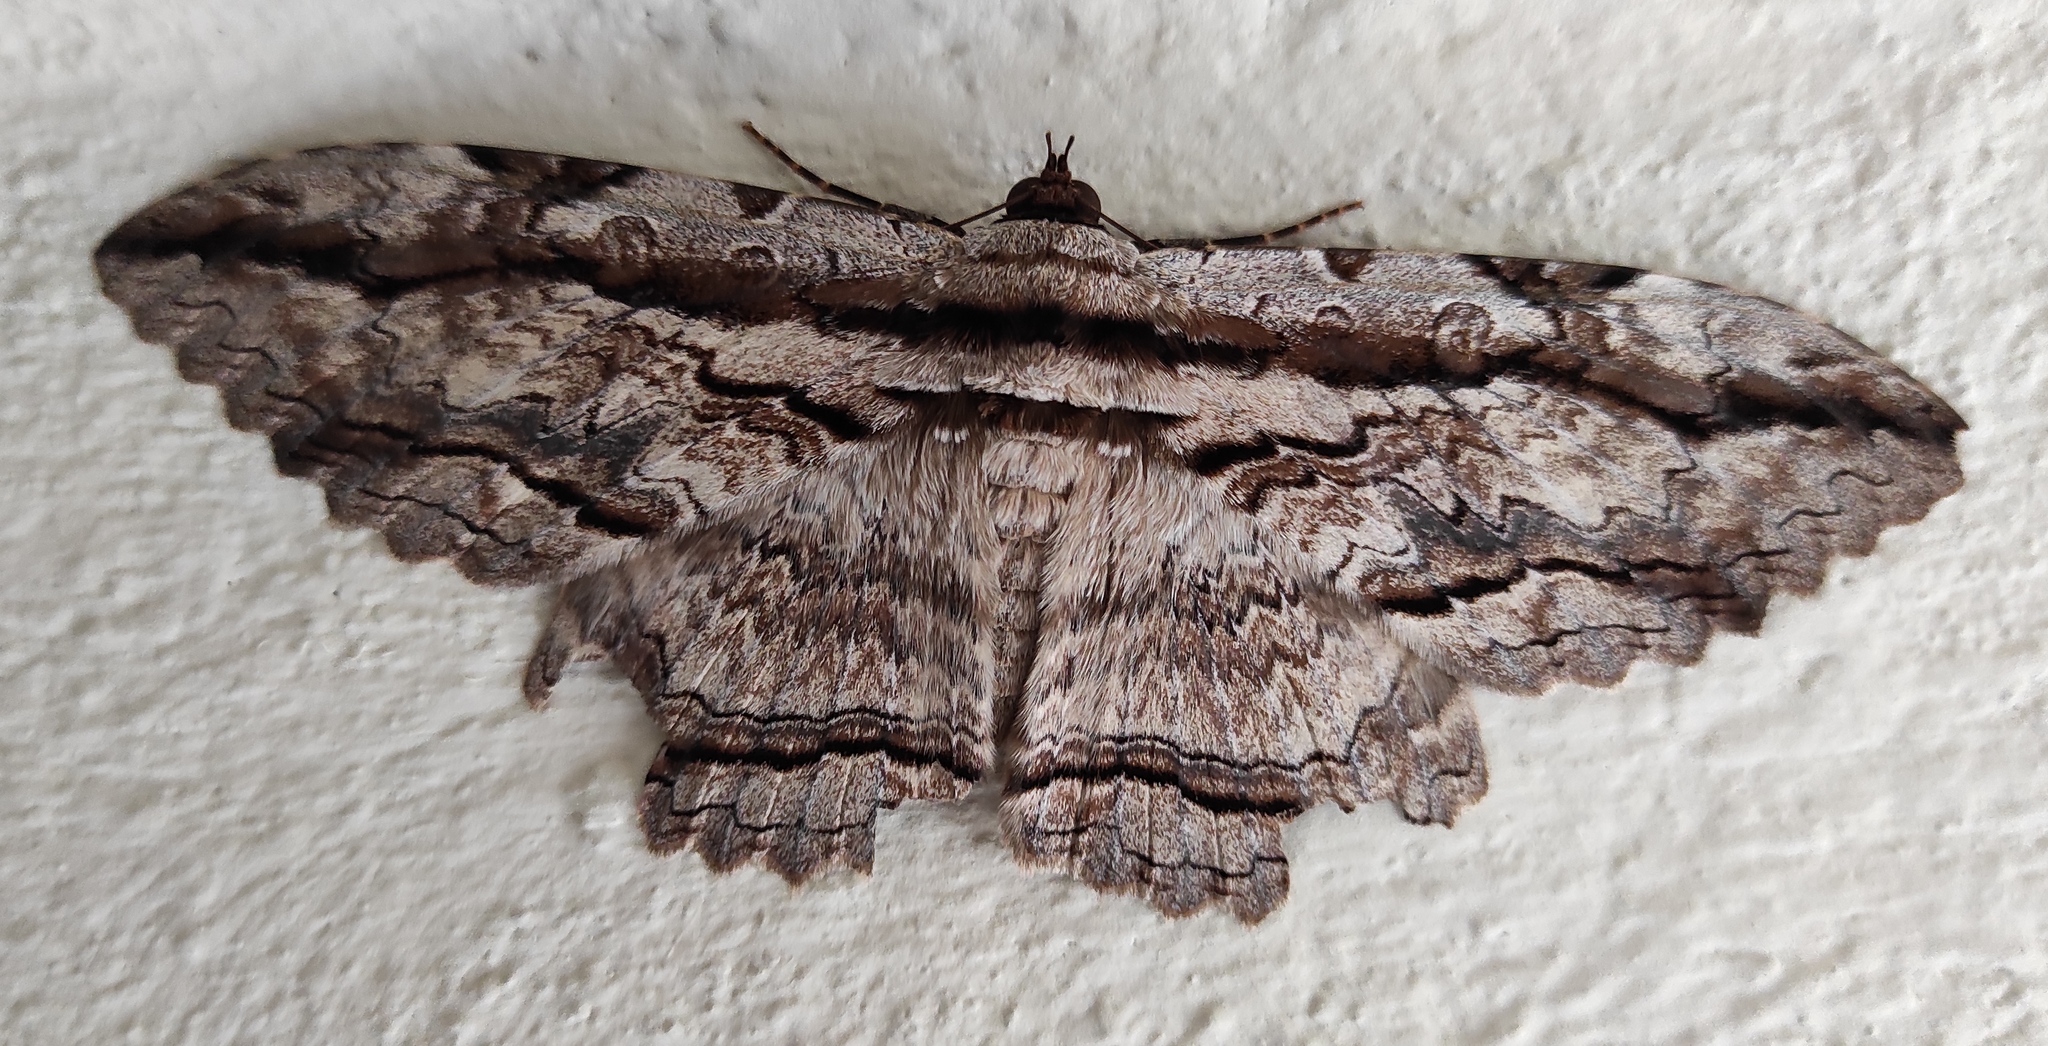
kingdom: Animalia
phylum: Arthropoda
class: Insecta
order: Lepidoptera
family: Erebidae
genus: Thysania
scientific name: Thysania zenobia
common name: Owl moth
